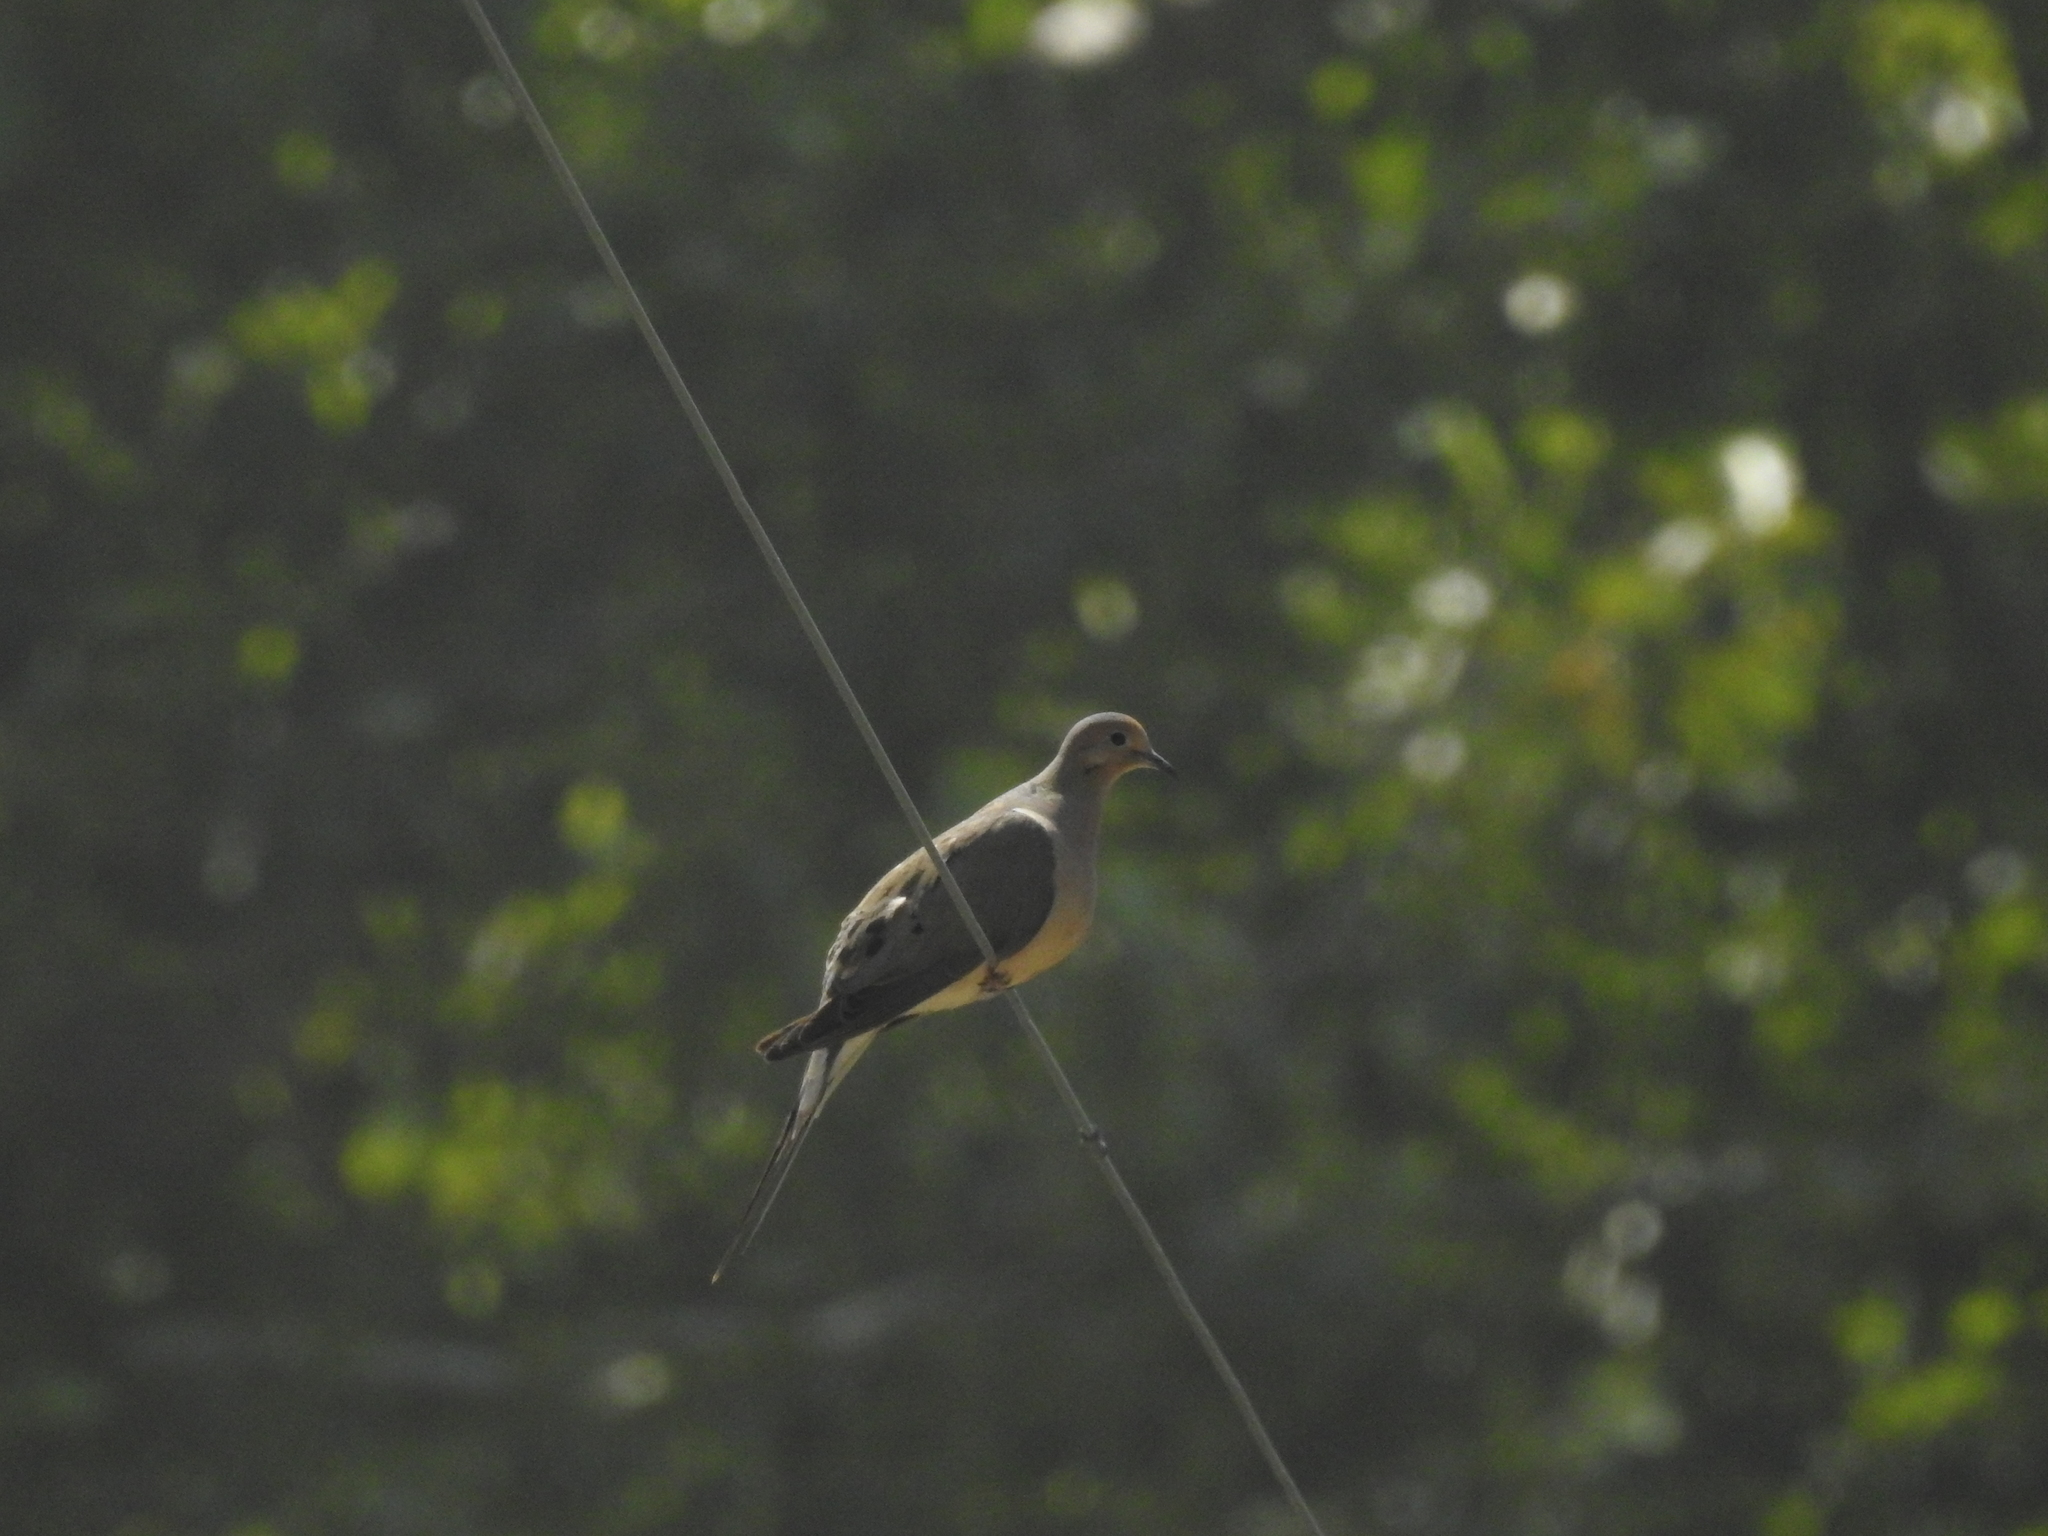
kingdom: Animalia
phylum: Chordata
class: Aves
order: Columbiformes
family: Columbidae
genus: Zenaida
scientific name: Zenaida macroura
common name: Mourning dove
